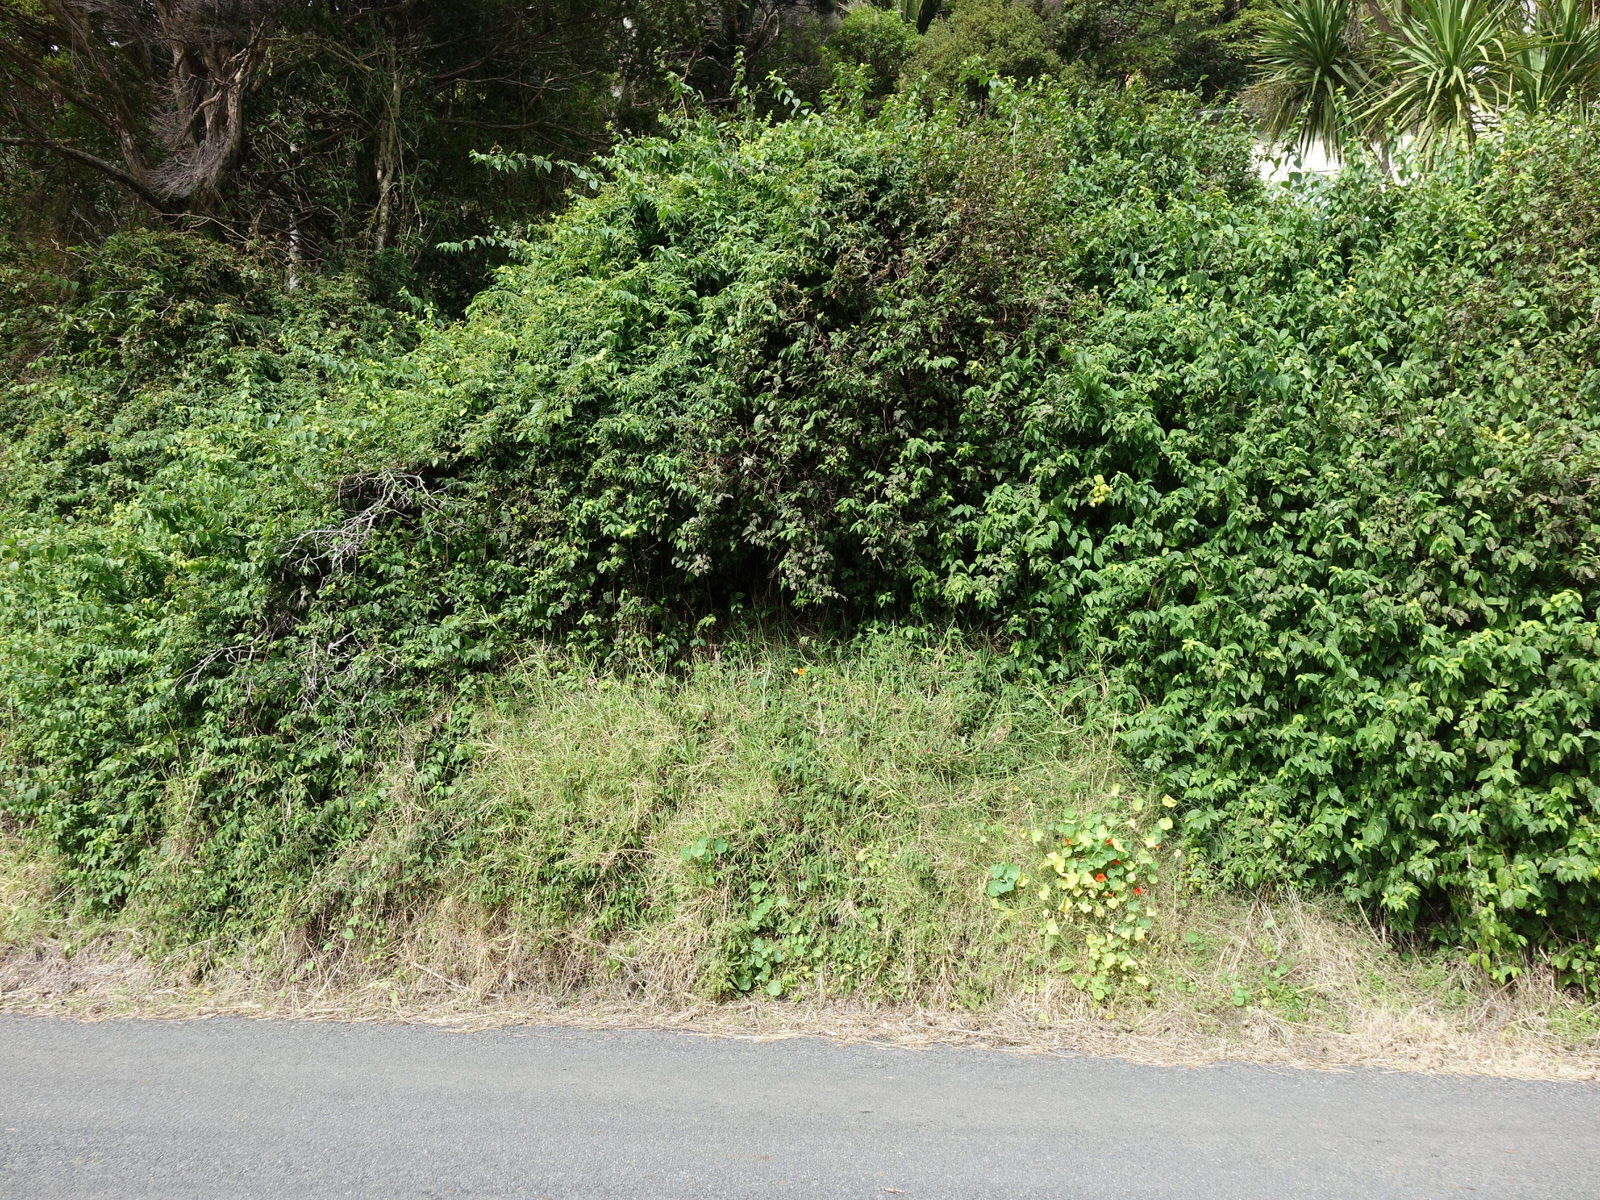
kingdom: Plantae
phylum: Tracheophyta
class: Magnoliopsida
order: Malvales
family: Malvaceae
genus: Callianthe
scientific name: Callianthe megapotamica
